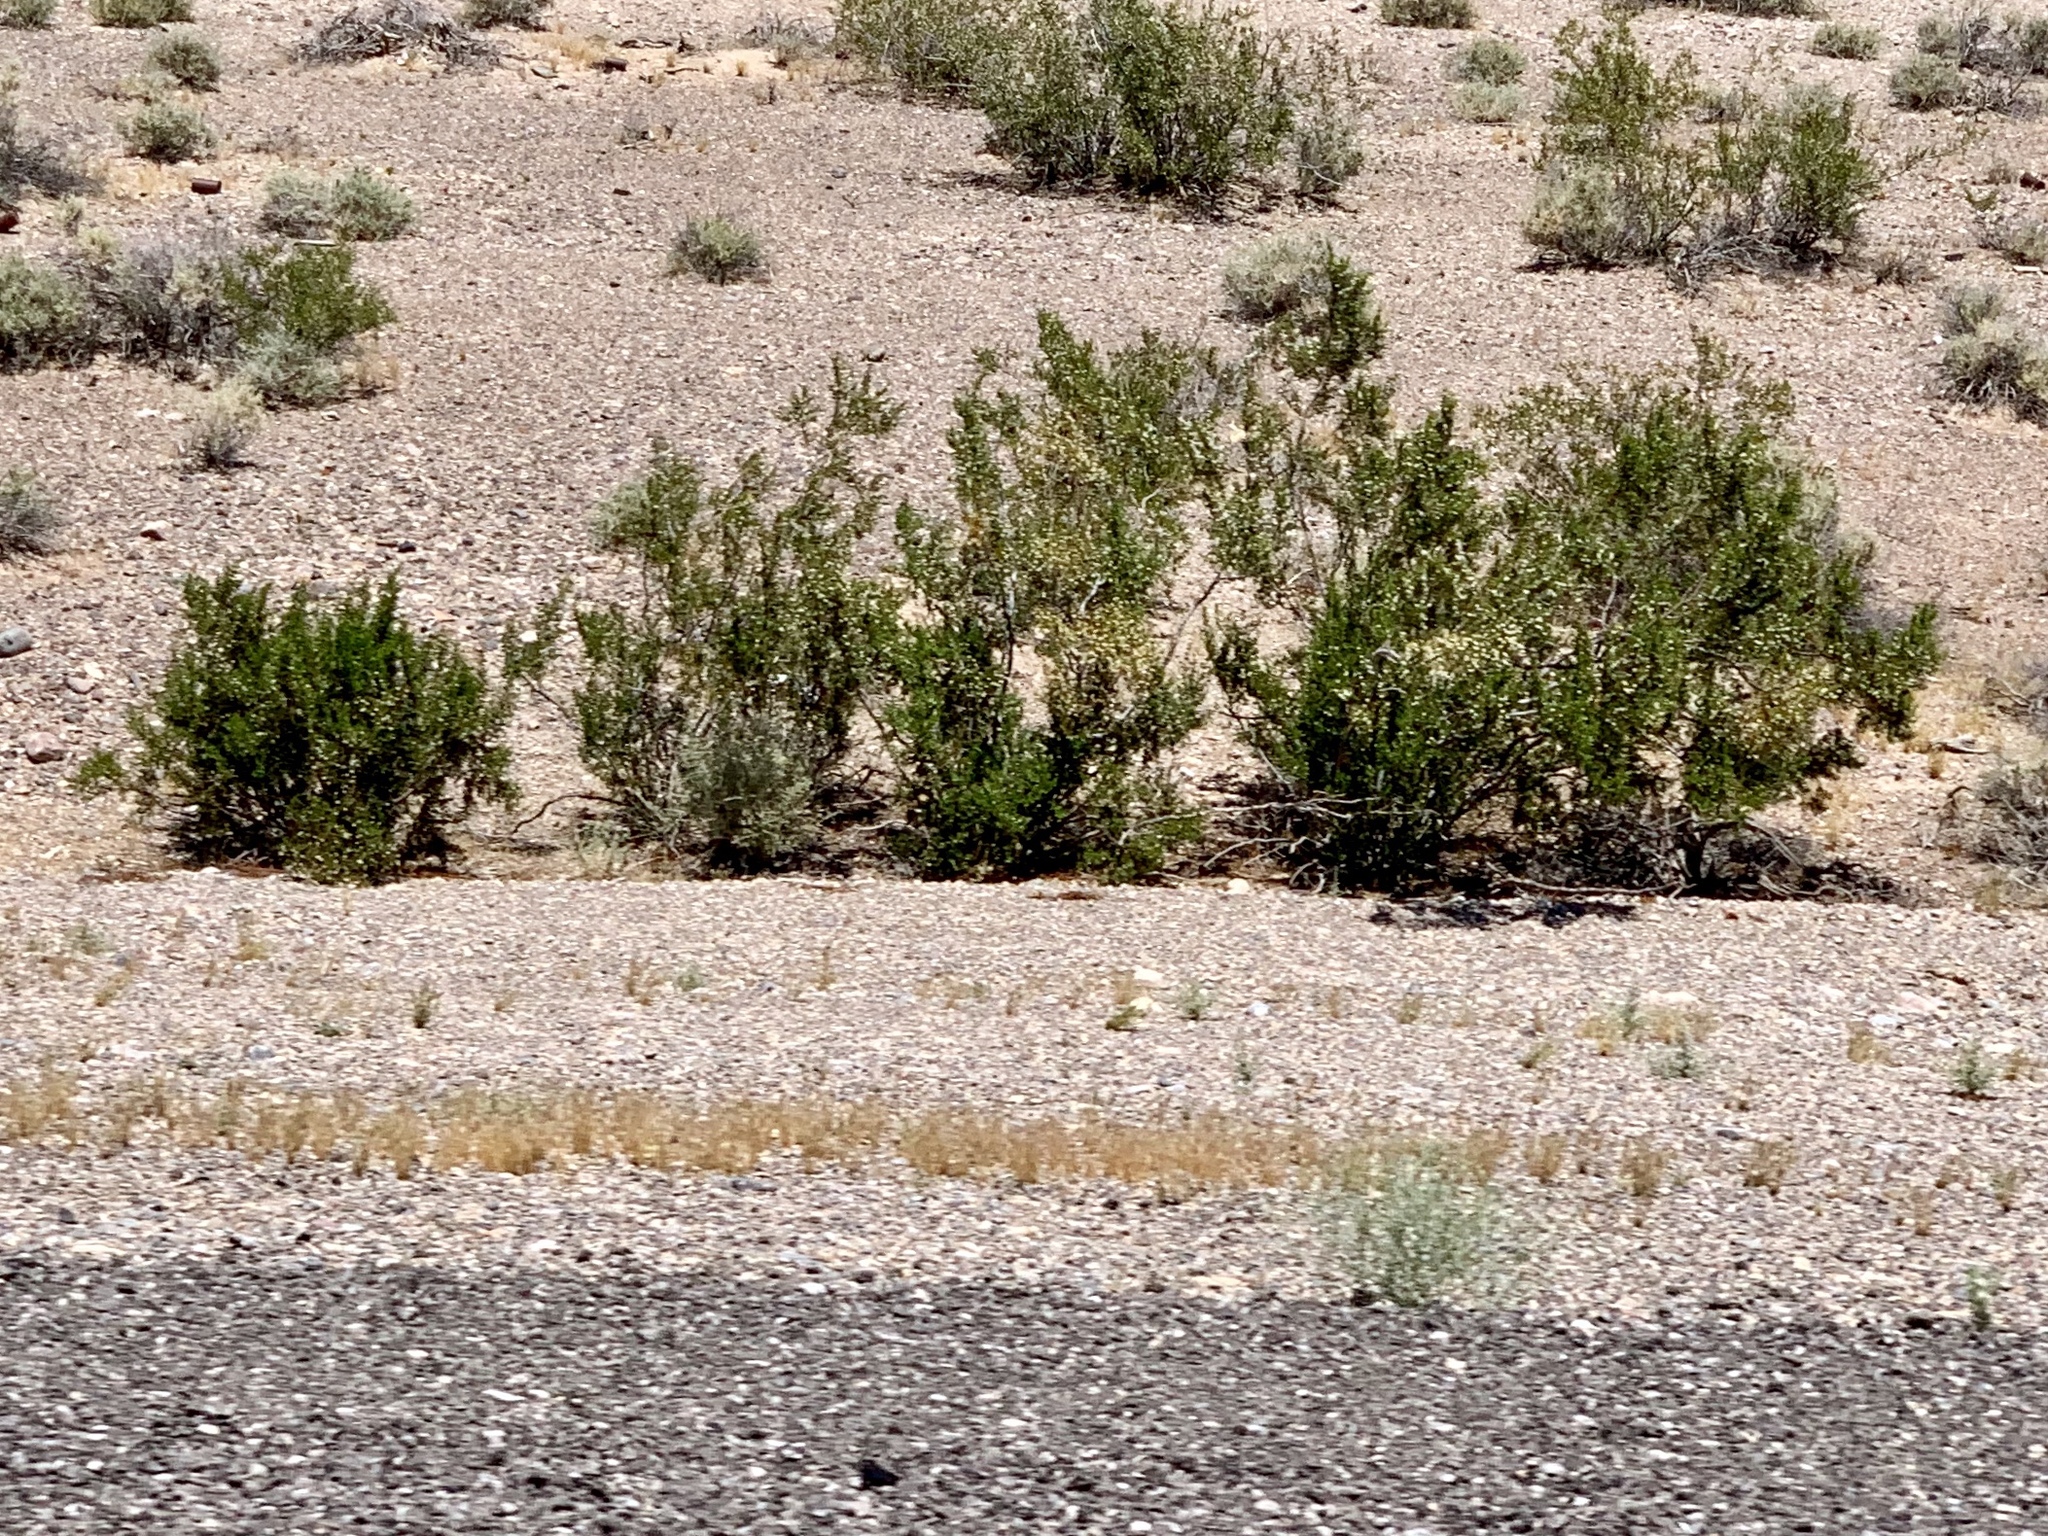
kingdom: Plantae
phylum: Tracheophyta
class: Magnoliopsida
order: Zygophyllales
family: Zygophyllaceae
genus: Larrea
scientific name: Larrea tridentata
